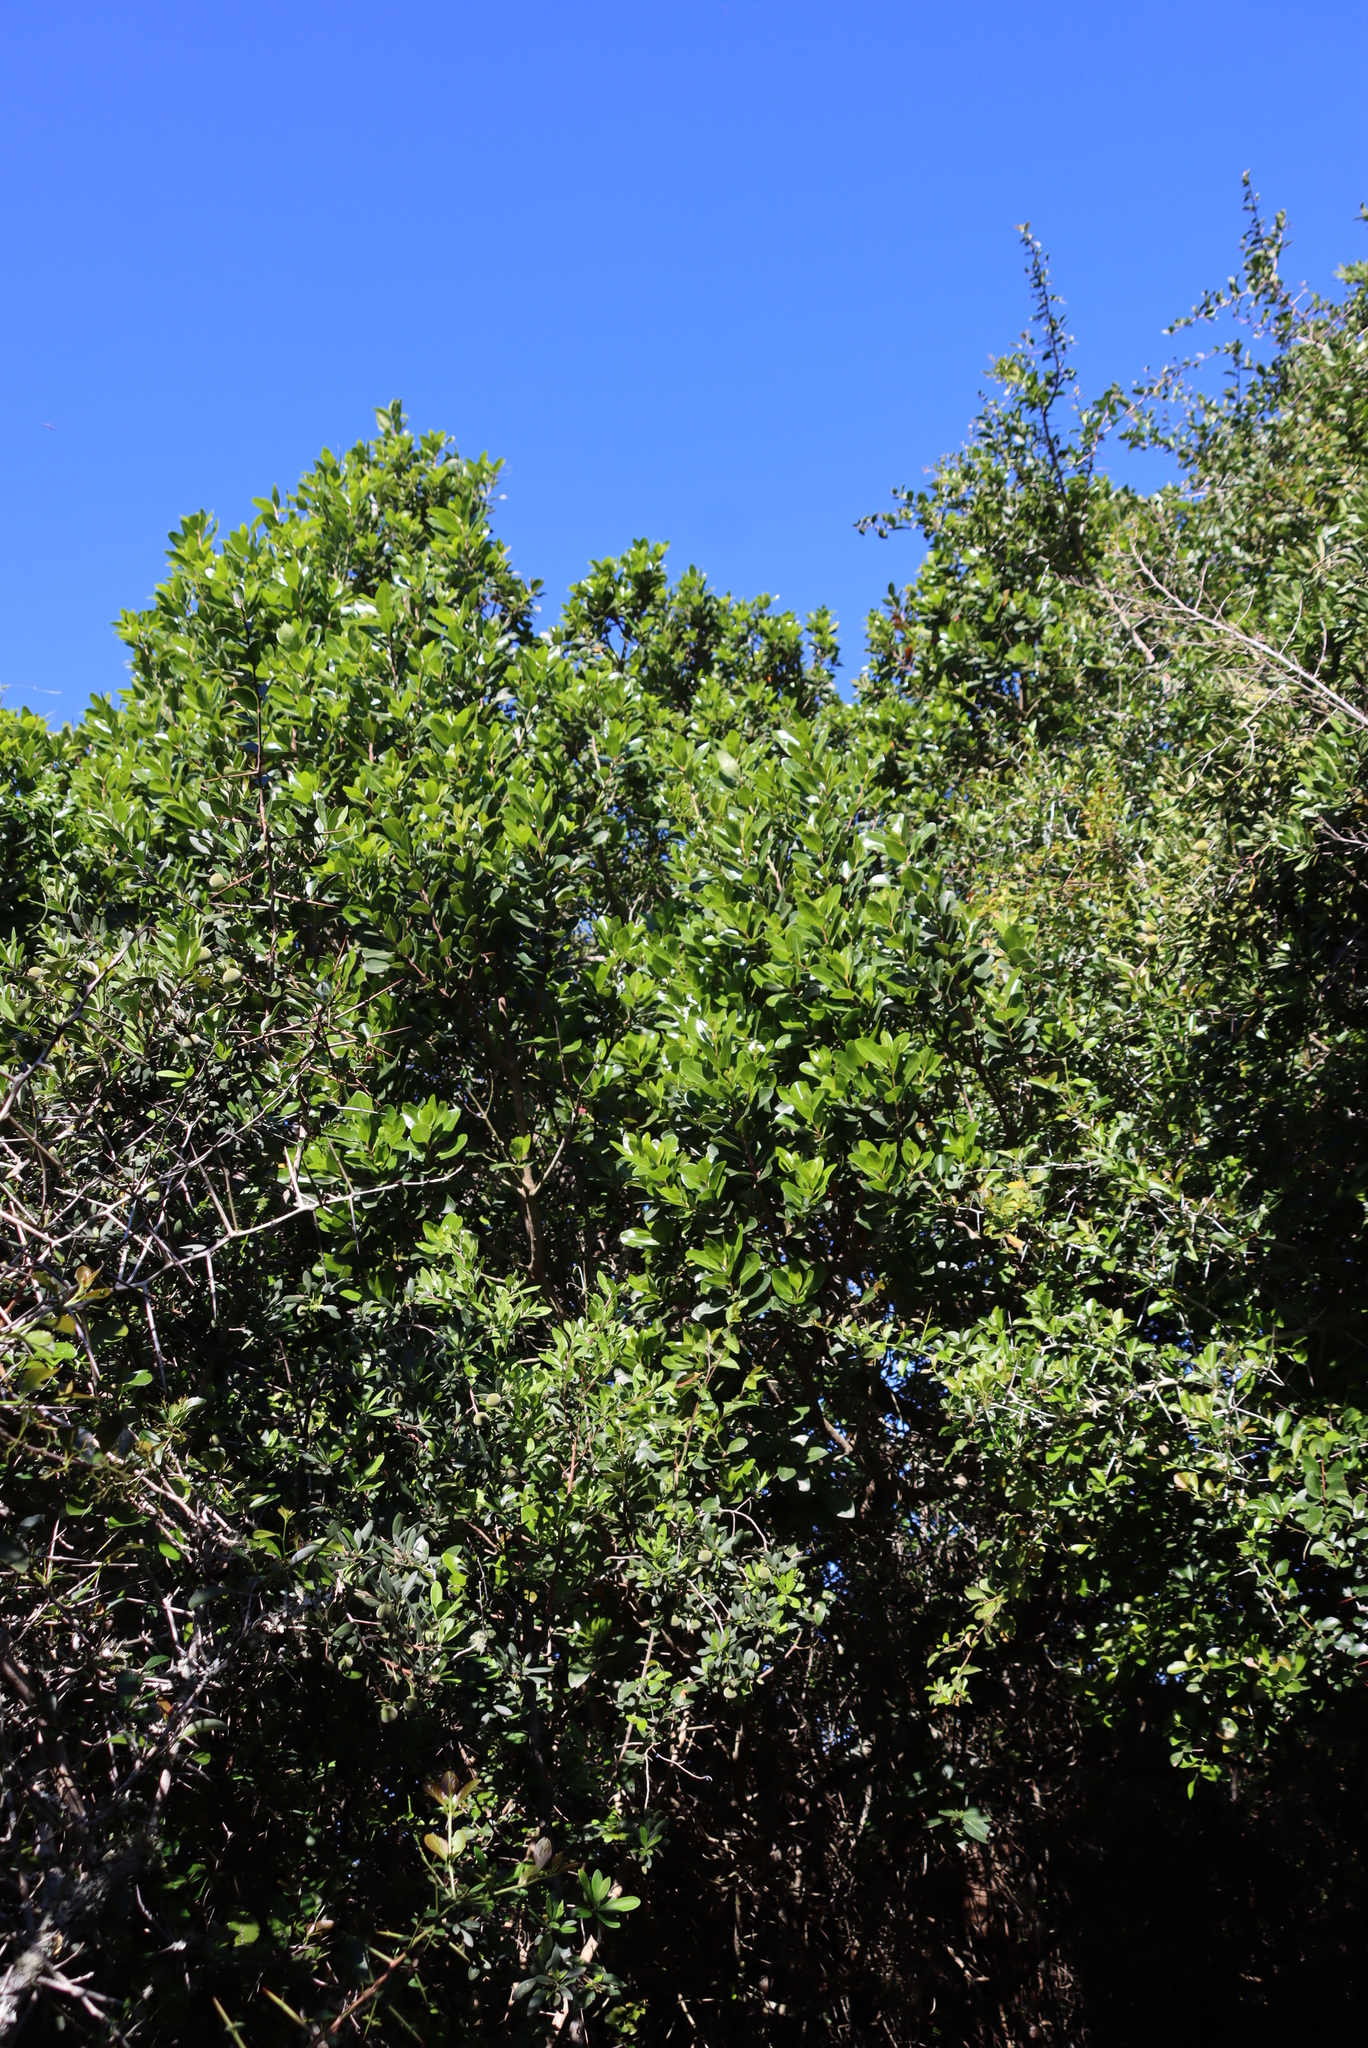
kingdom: Plantae
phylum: Tracheophyta
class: Magnoliopsida
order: Ericales
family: Sapotaceae
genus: Sideroxylon
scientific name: Sideroxylon inerme
